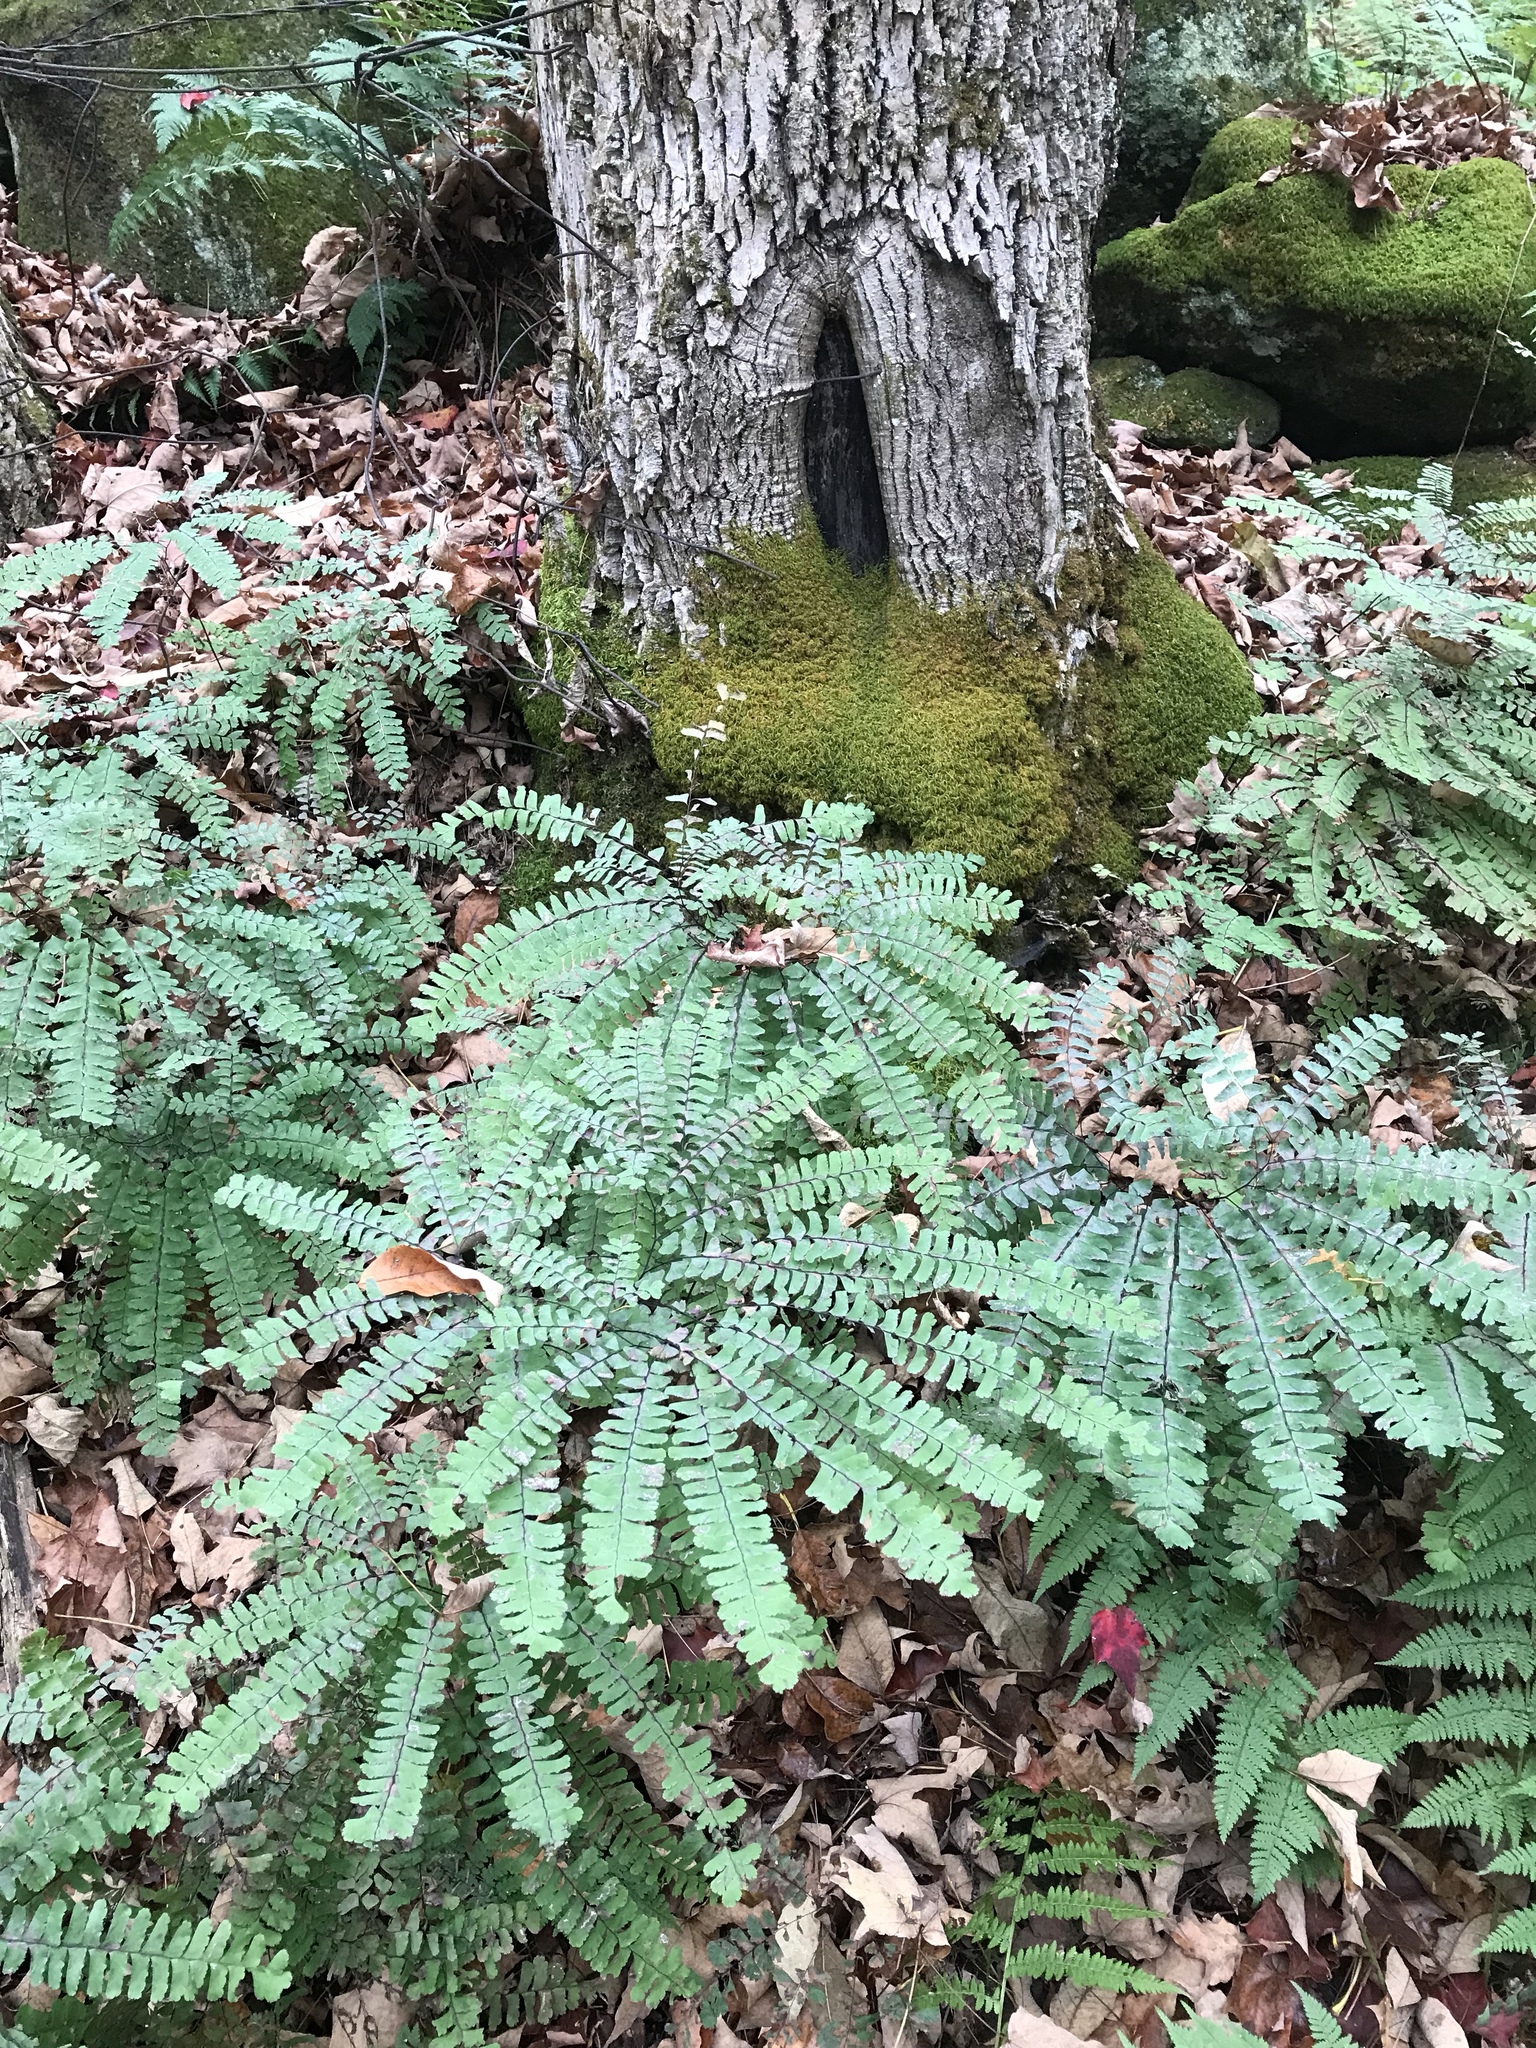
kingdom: Plantae
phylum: Tracheophyta
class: Polypodiopsida
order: Polypodiales
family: Pteridaceae
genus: Adiantum
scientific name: Adiantum pedatum
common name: Five-finger fern
